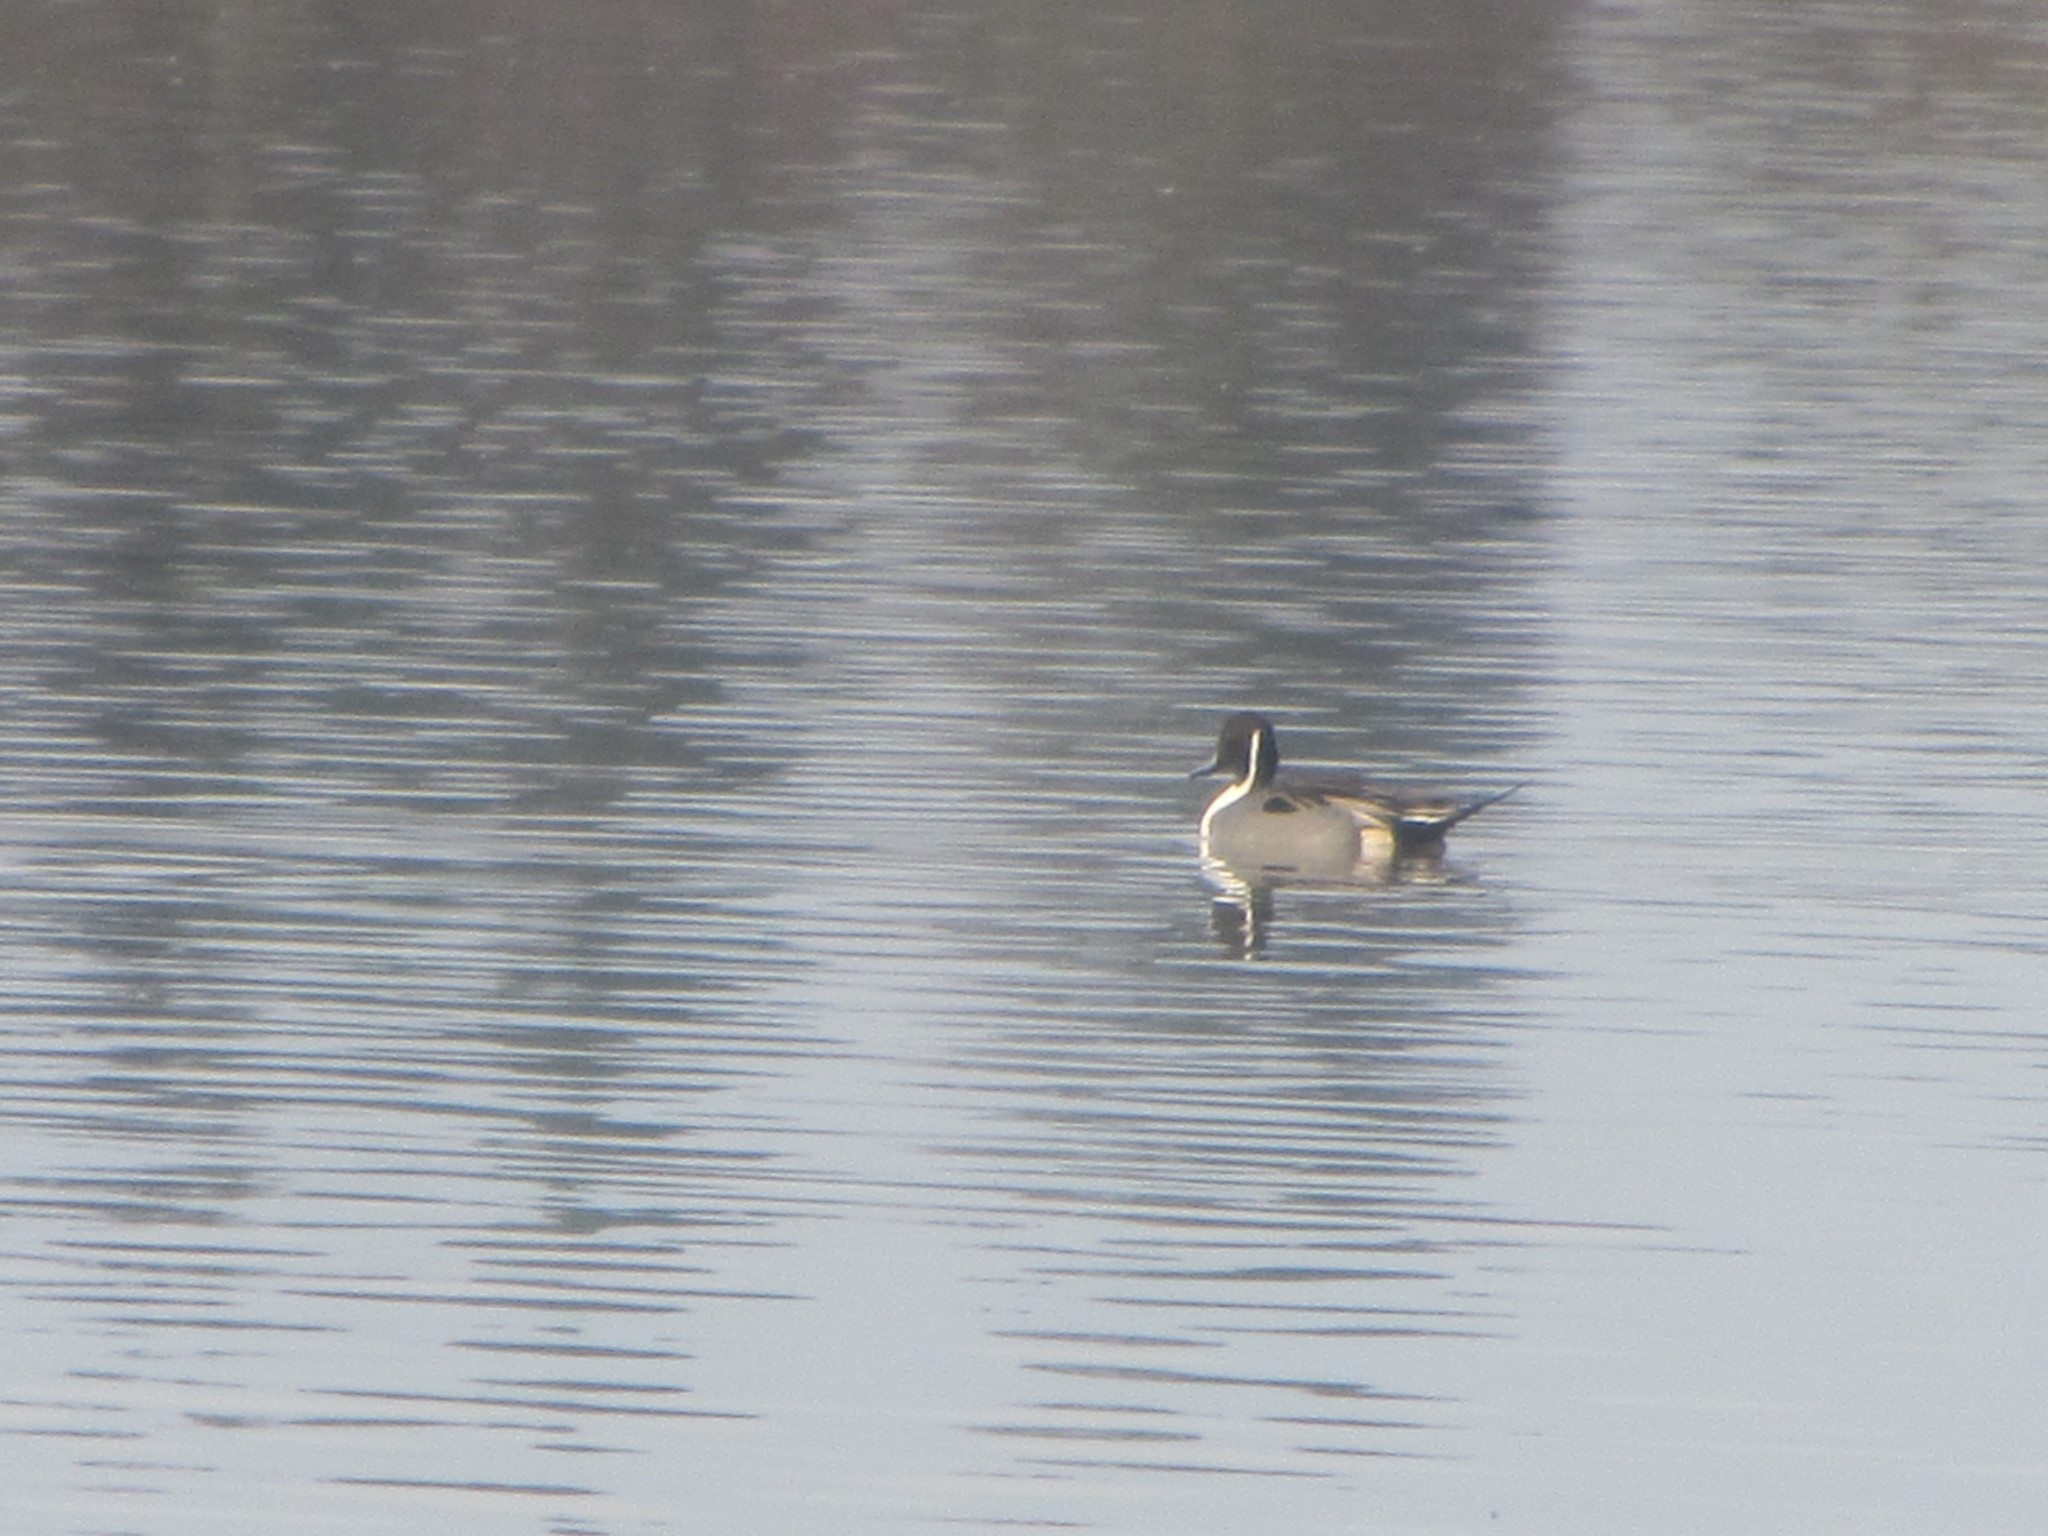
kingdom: Animalia
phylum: Chordata
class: Aves
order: Anseriformes
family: Anatidae
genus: Anas
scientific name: Anas acuta
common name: Northern pintail
